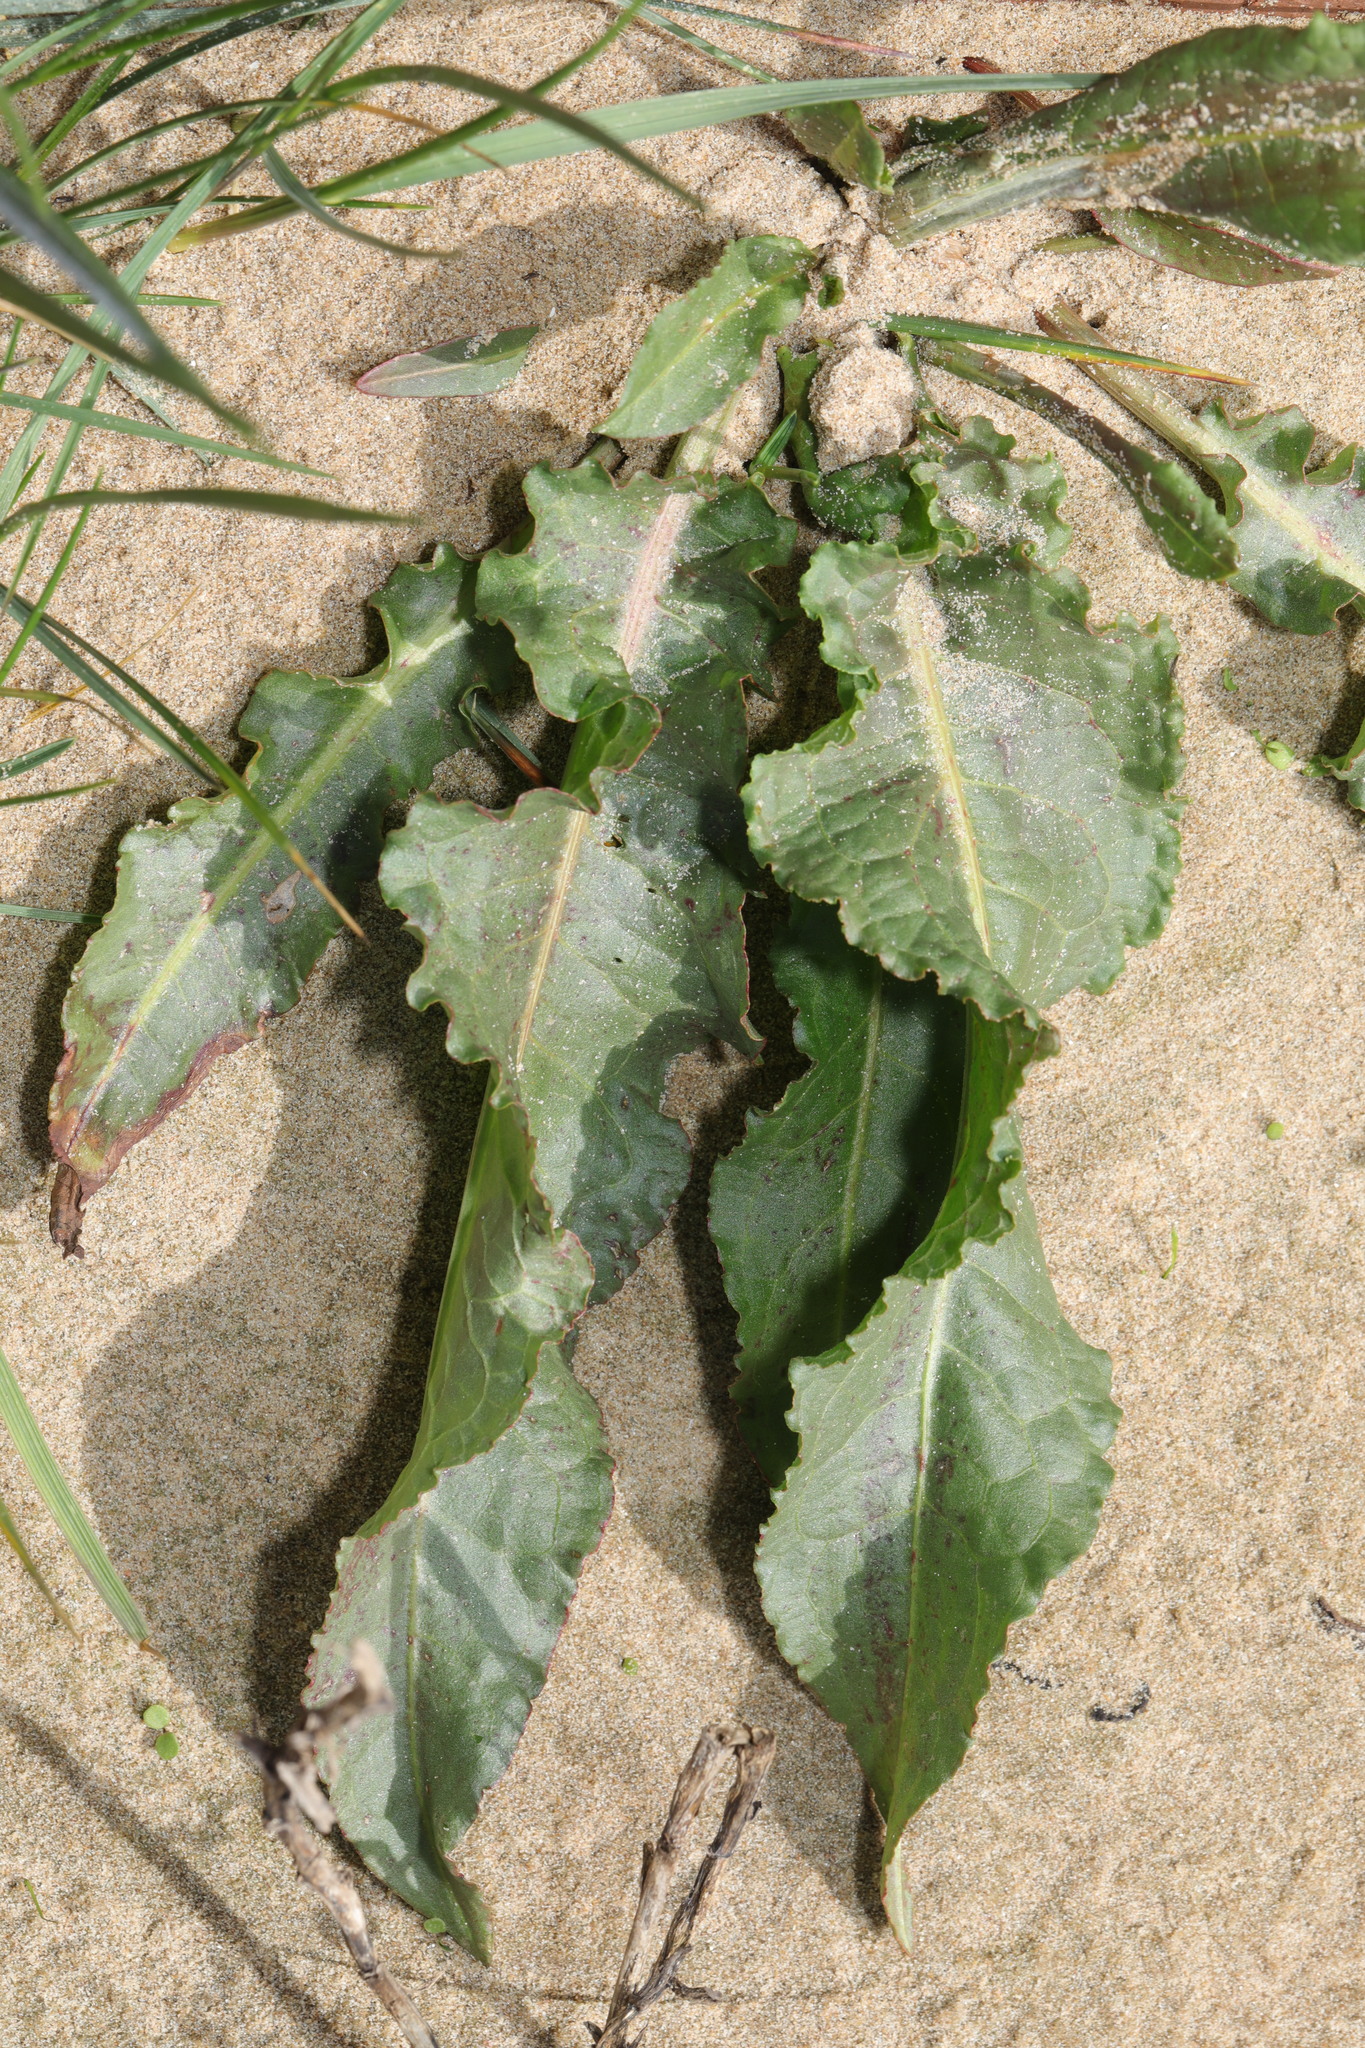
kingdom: Plantae
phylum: Tracheophyta
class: Magnoliopsida
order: Caryophyllales
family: Polygonaceae
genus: Rumex
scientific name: Rumex crispus
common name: Curled dock
